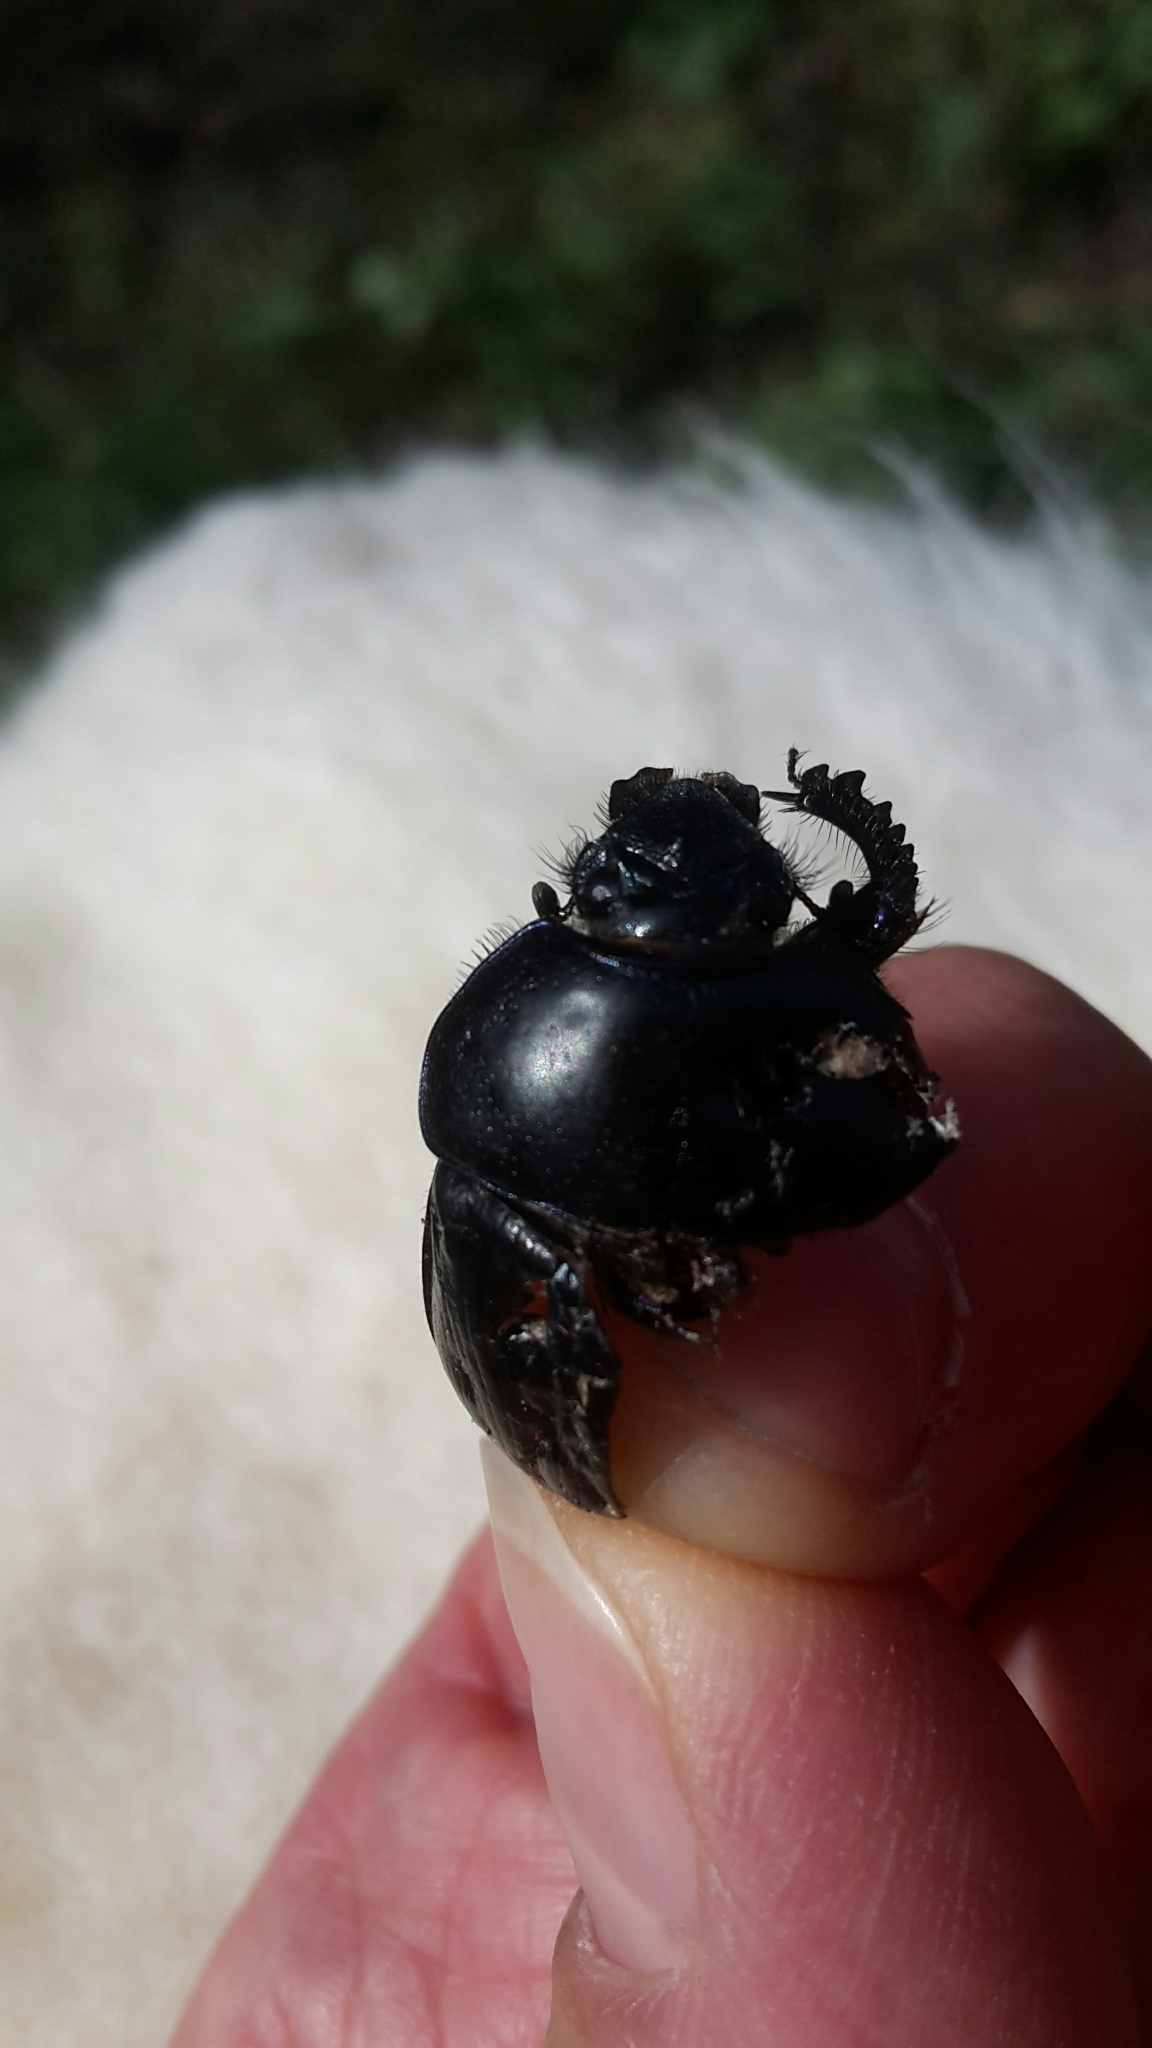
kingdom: Animalia
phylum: Arthropoda
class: Insecta
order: Coleoptera
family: Geotrupidae
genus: Geotrupes
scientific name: Geotrupes spiniger
